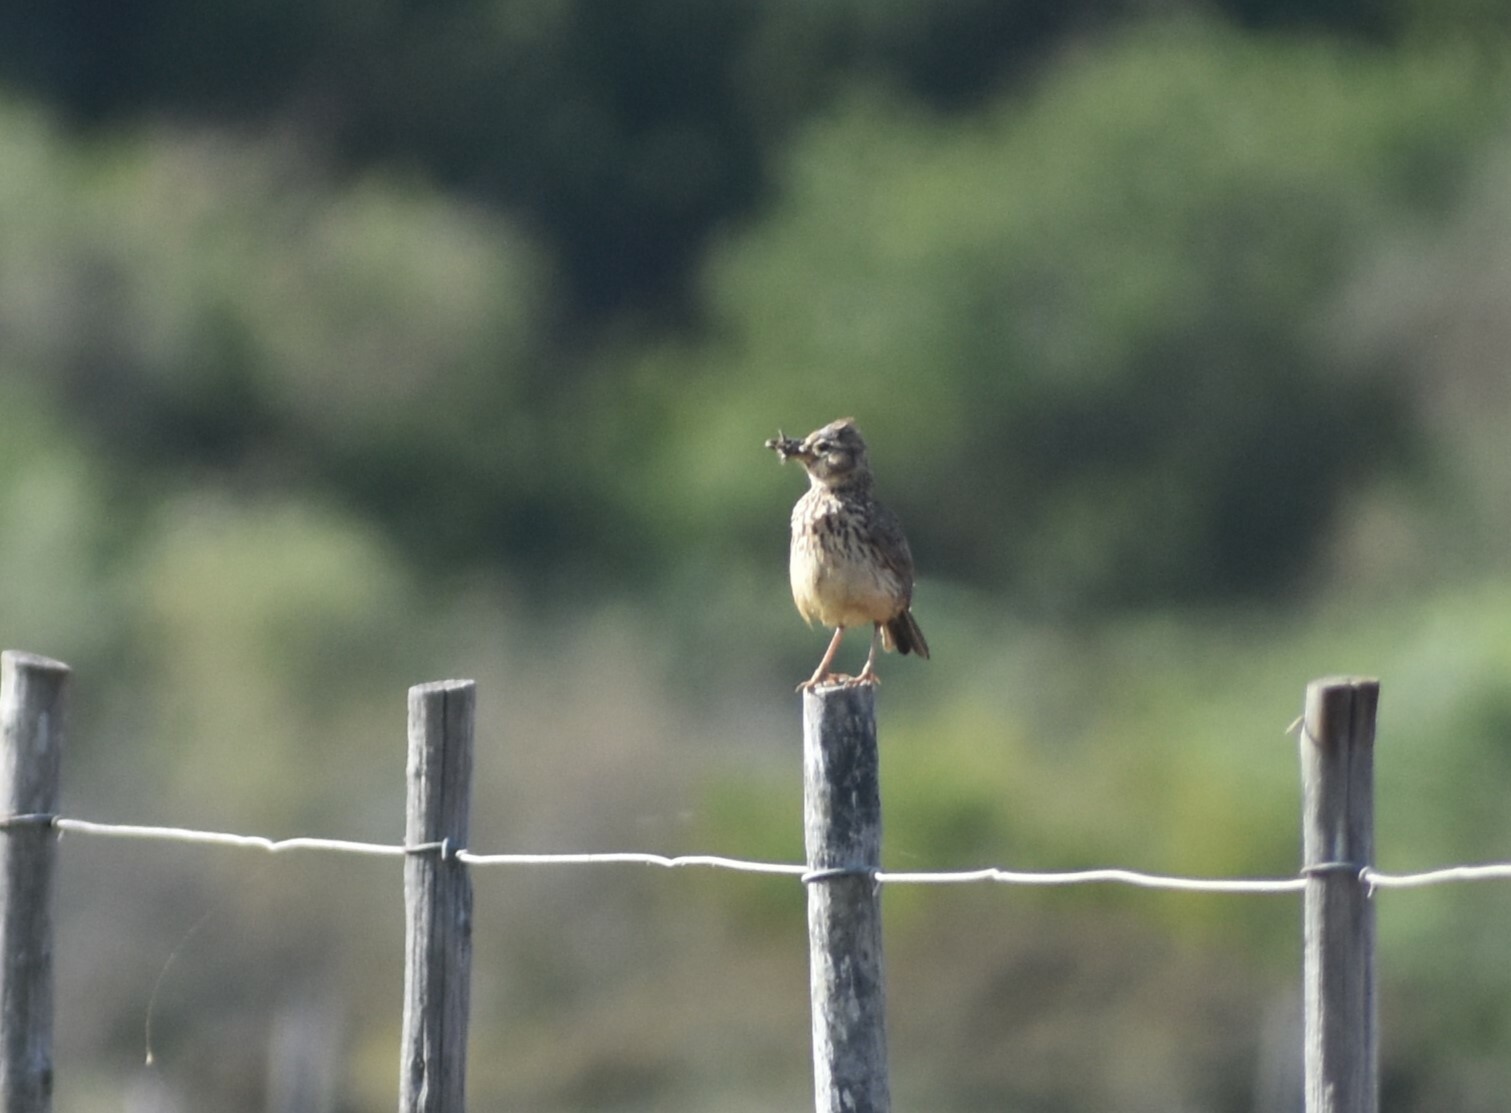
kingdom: Animalia
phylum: Chordata
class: Aves
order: Passeriformes
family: Alaudidae
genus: Galerida
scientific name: Galerida magnirostris
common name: Large-billed lark
